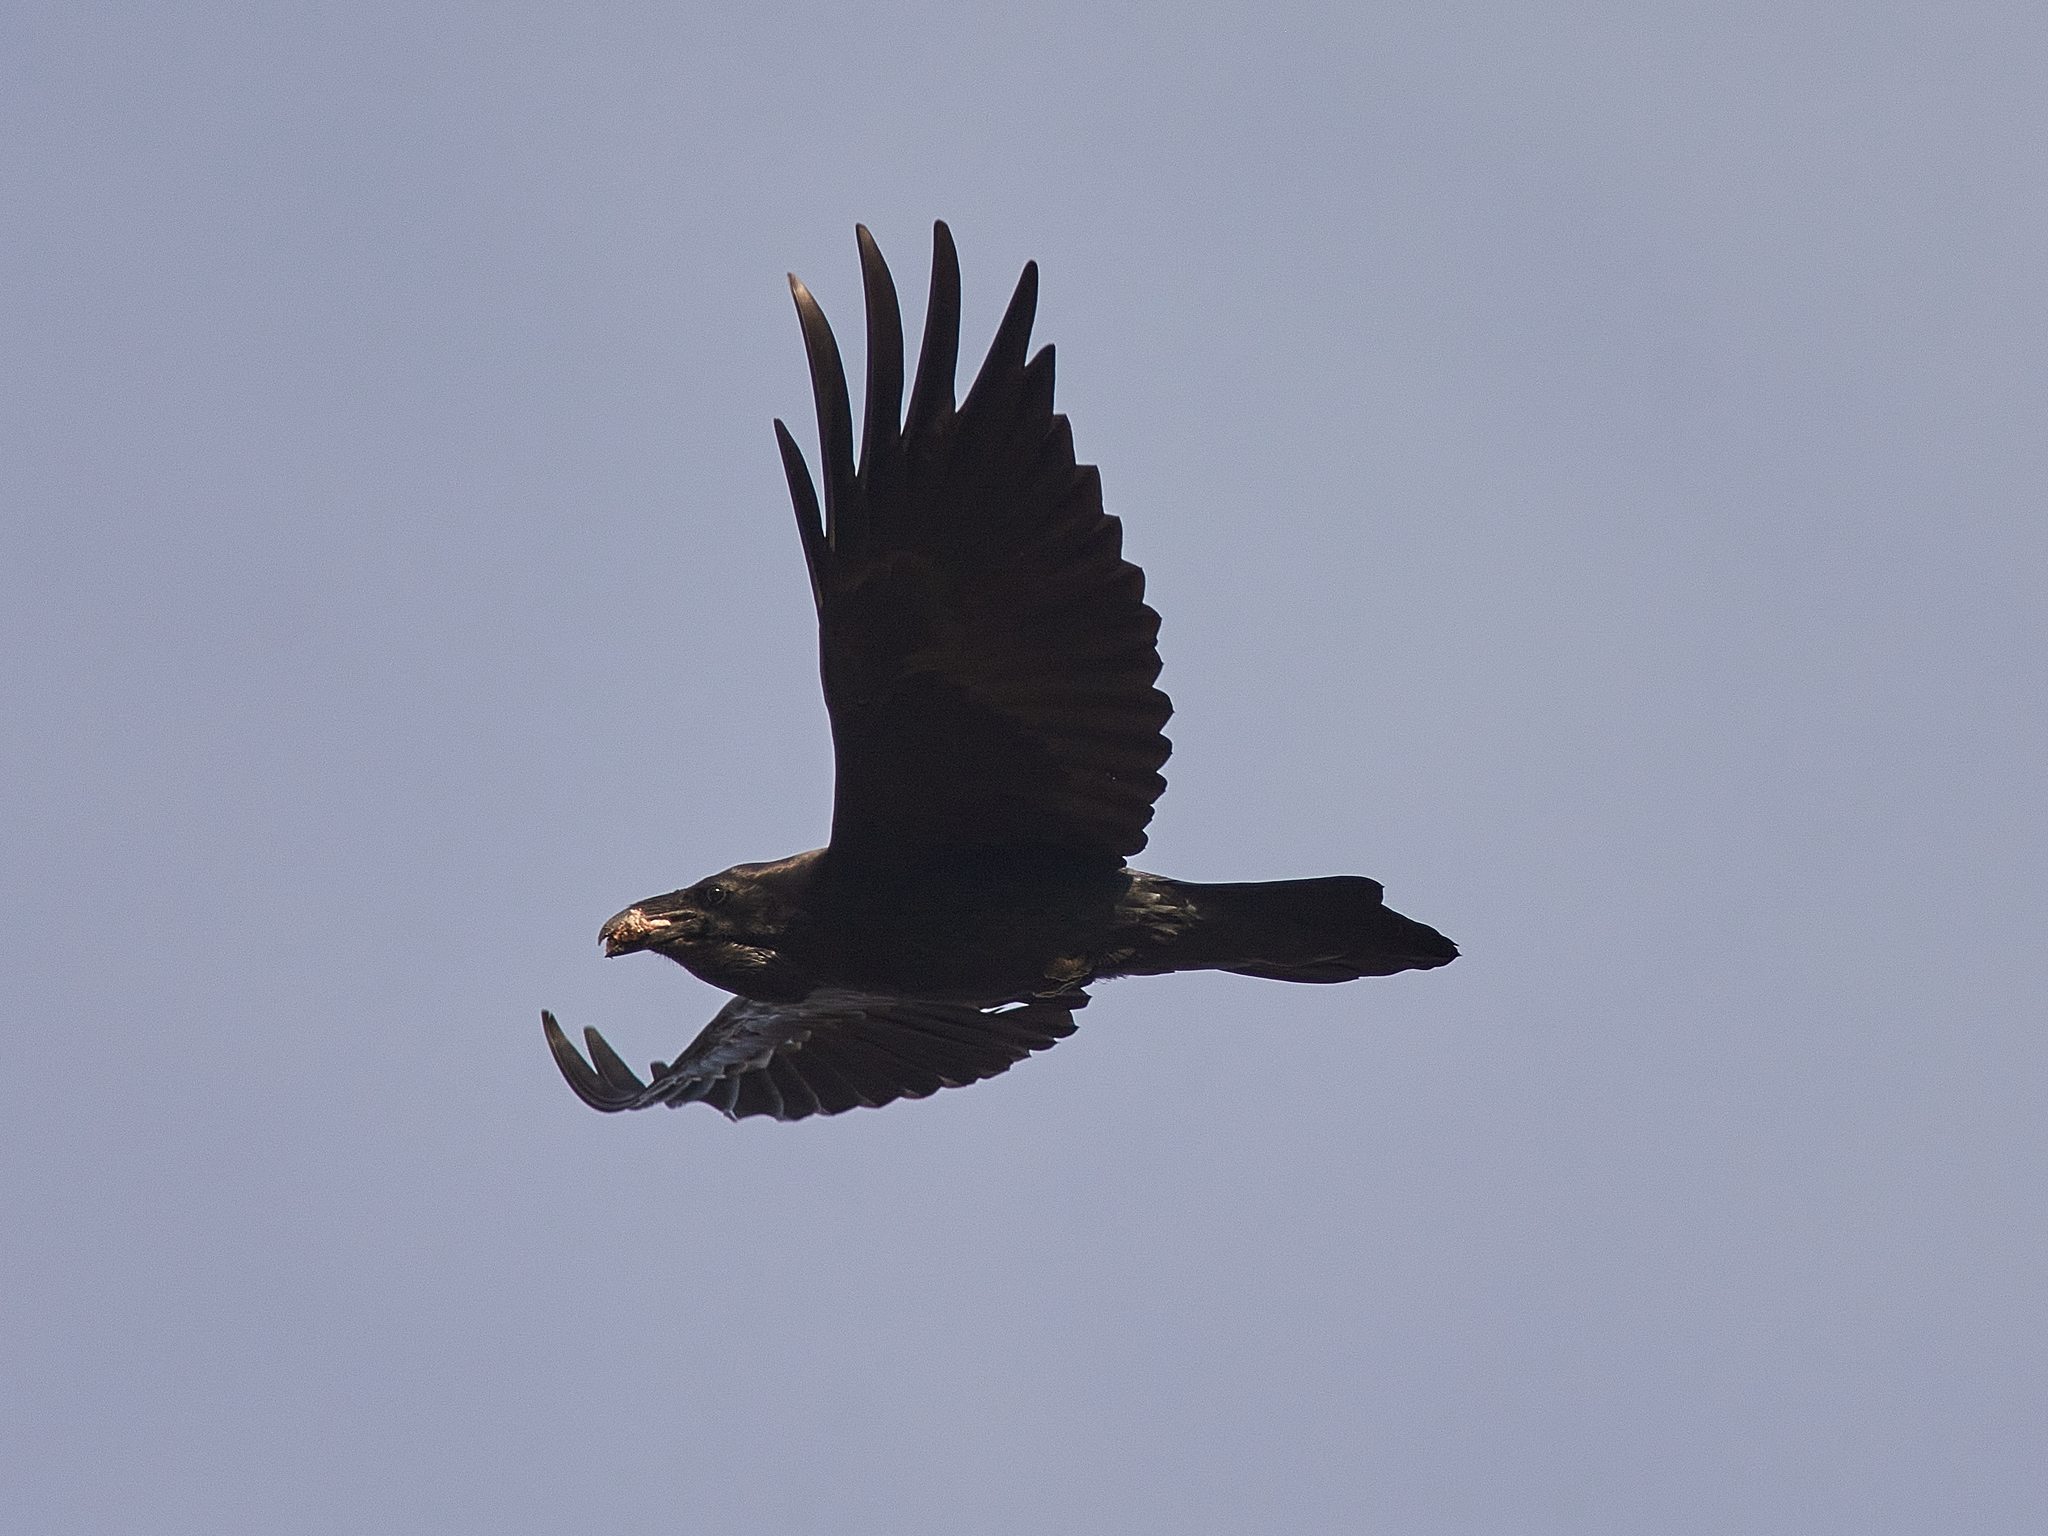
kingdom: Animalia
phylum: Chordata
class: Aves
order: Passeriformes
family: Corvidae
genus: Corvus
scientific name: Corvus corax
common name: Common raven
